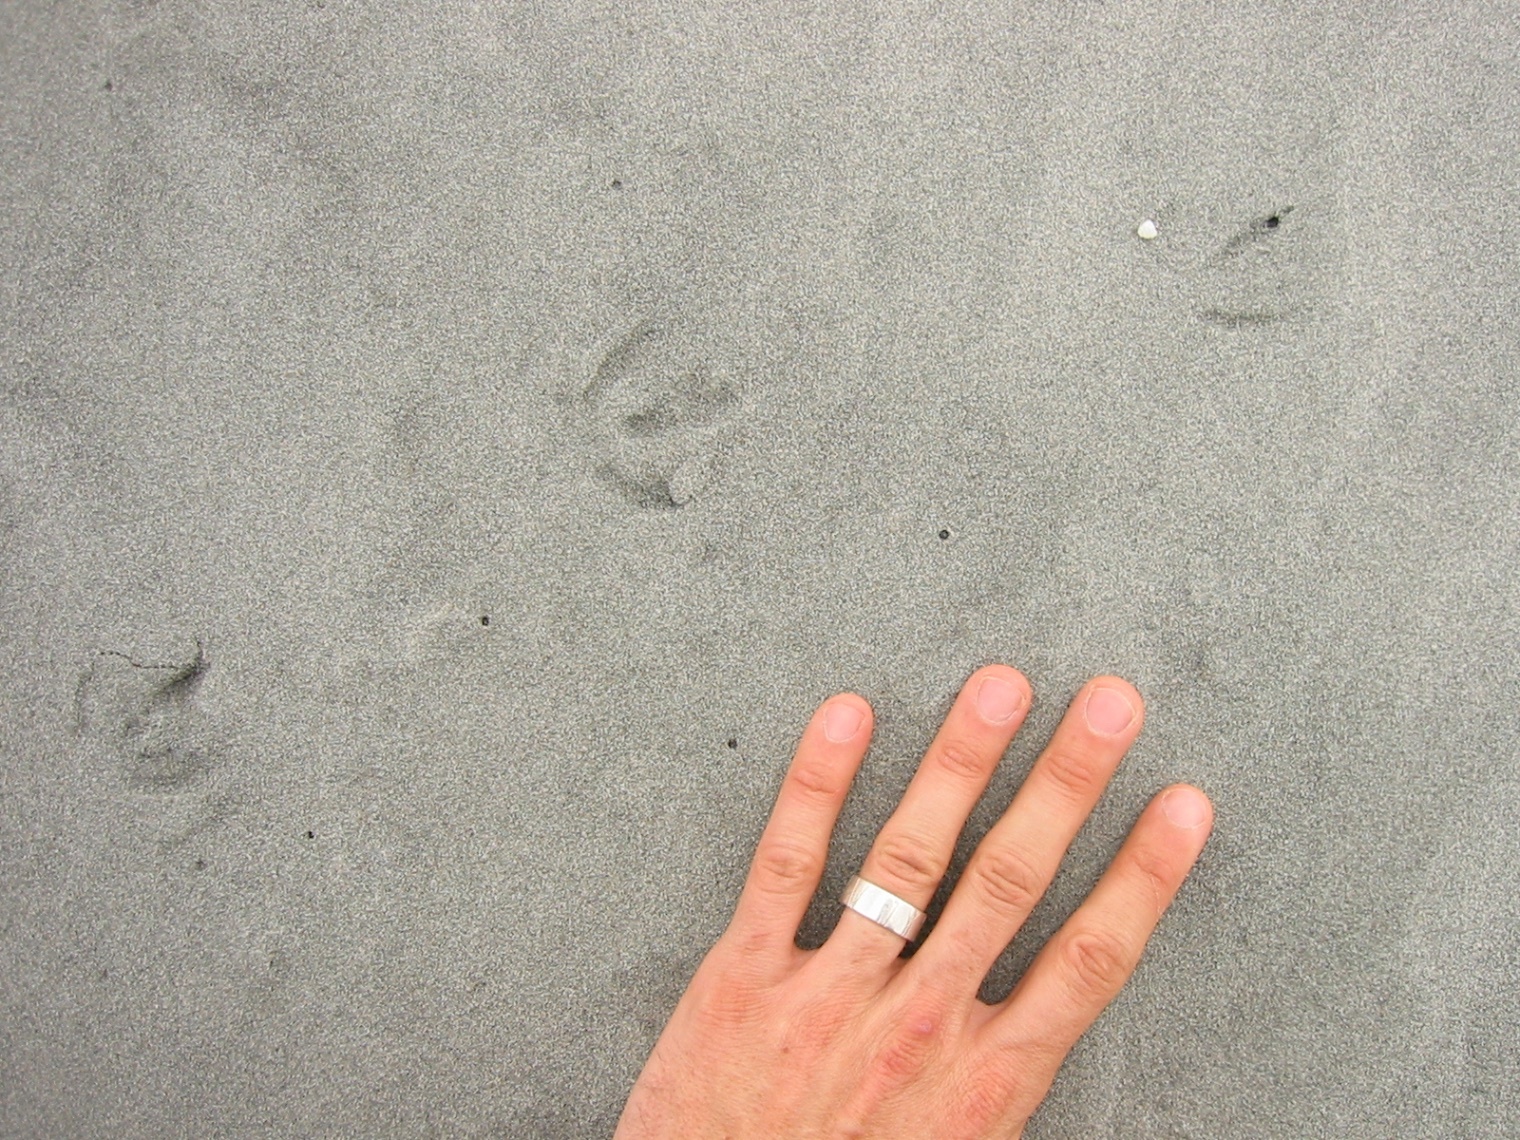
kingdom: Animalia
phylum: Chordata
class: Aves
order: Sphenisciformes
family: Spheniscidae
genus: Eudyptula
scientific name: Eudyptula minor
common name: Little penguin
